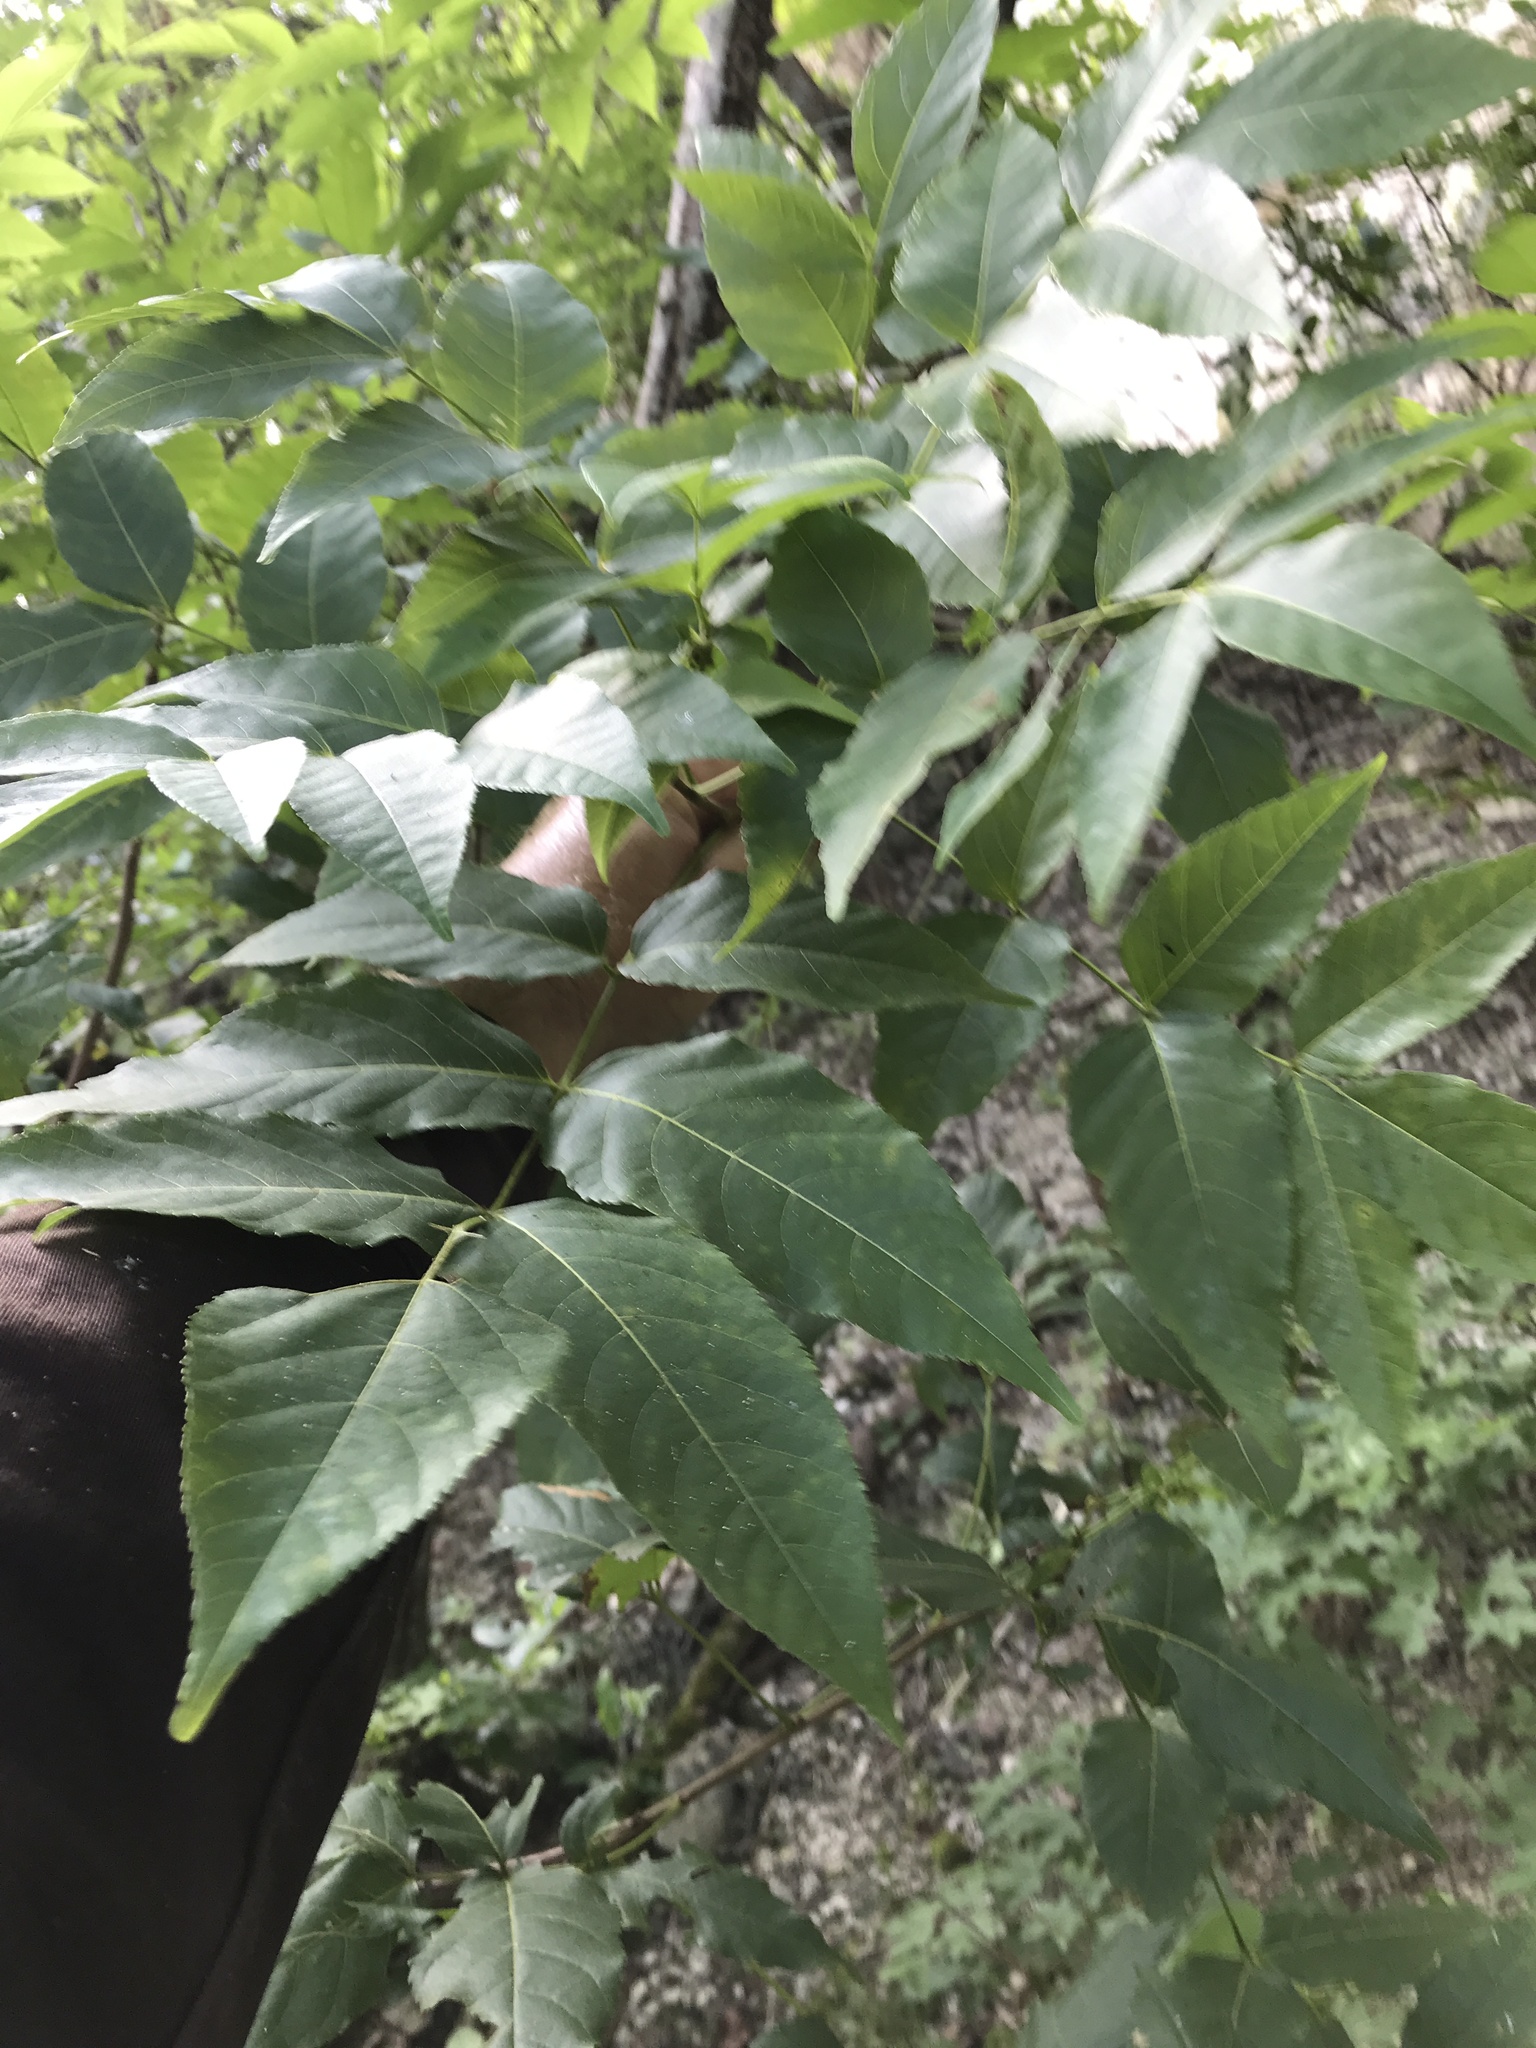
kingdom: Plantae
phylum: Tracheophyta
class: Magnoliopsida
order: Sapindales
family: Sapindaceae
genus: Ungnadia
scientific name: Ungnadia speciosa
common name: Texas-buckeye
